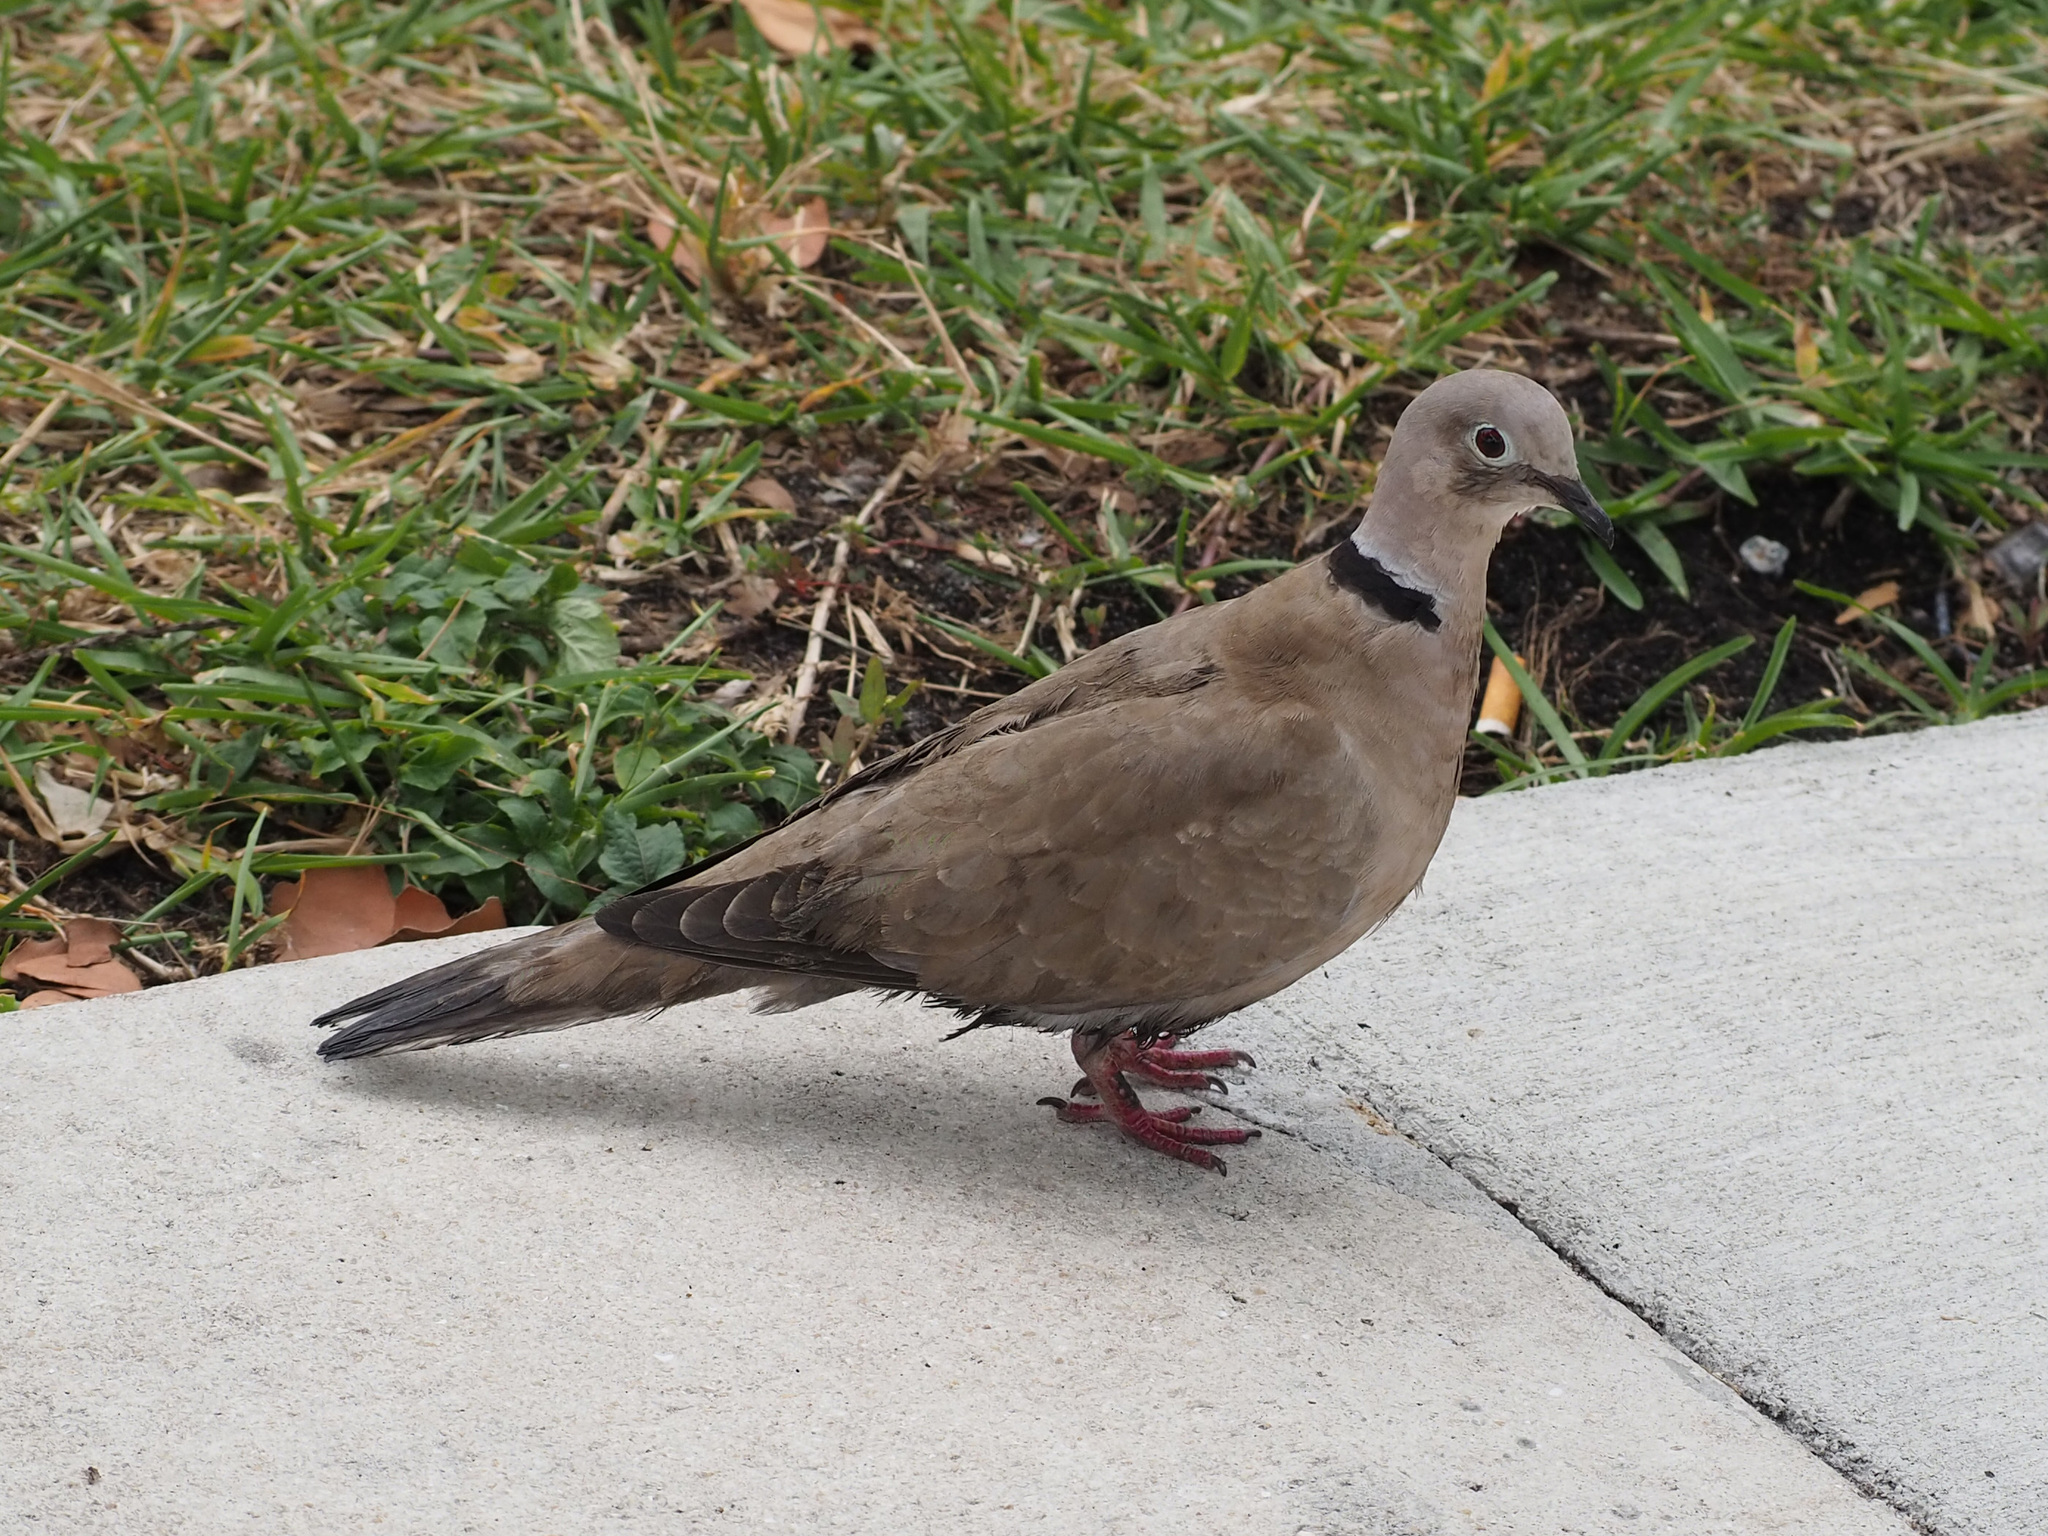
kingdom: Animalia
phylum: Chordata
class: Aves
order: Columbiformes
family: Columbidae
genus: Streptopelia
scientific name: Streptopelia decaocto
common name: Eurasian collared dove
